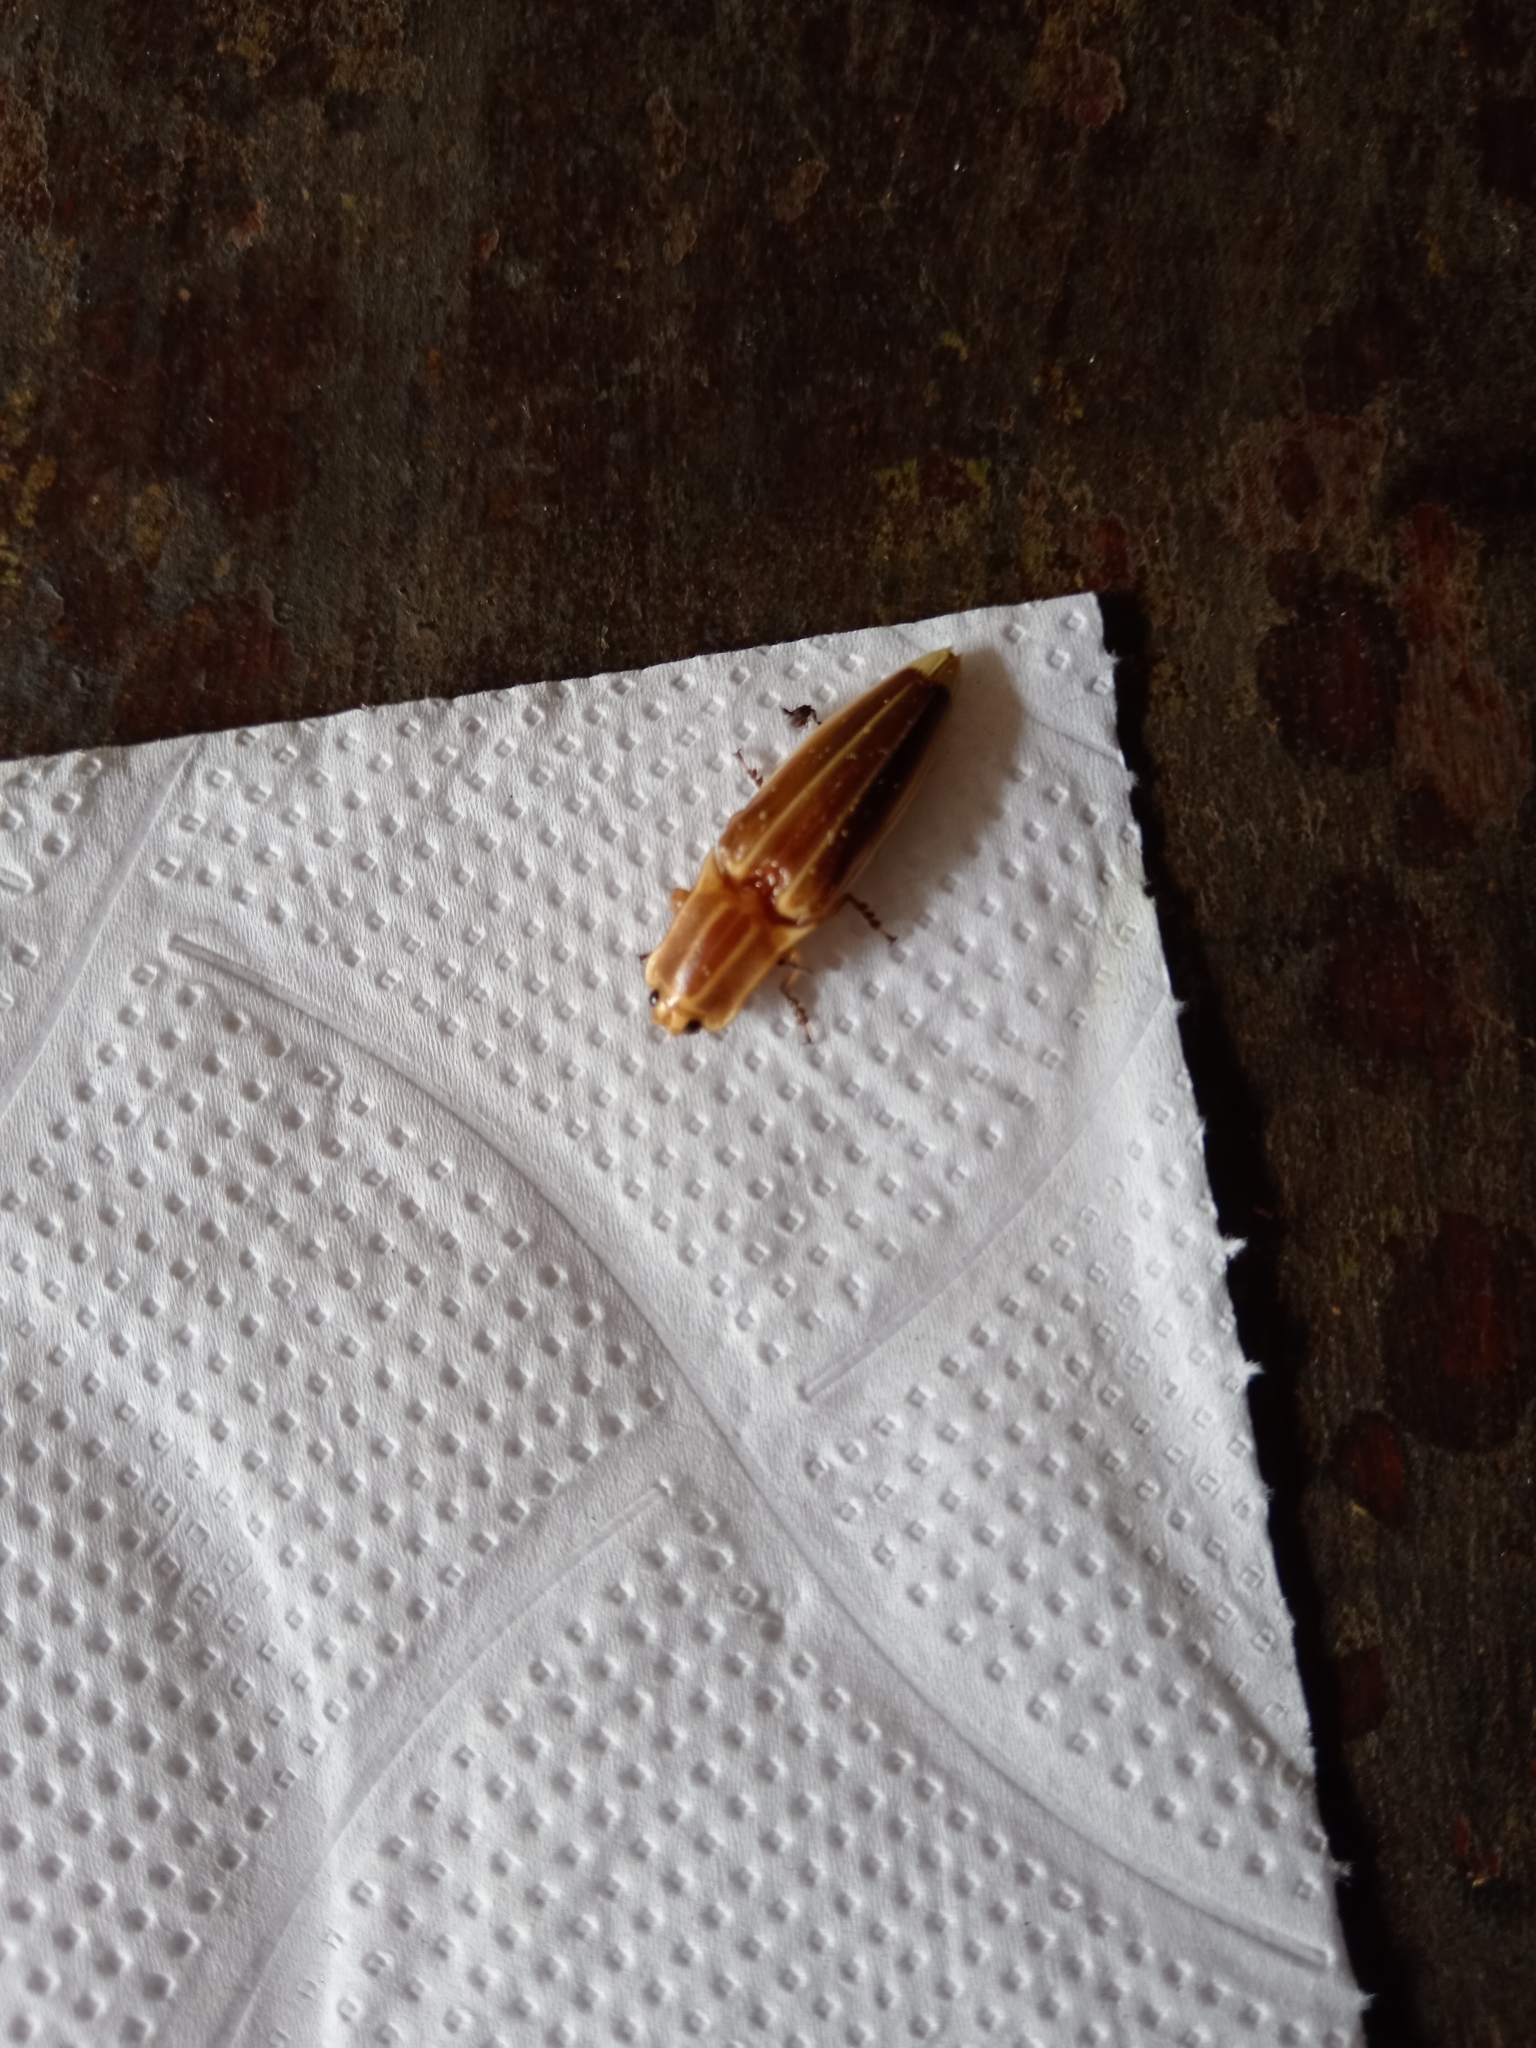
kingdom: Animalia
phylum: Arthropoda
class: Insecta
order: Coleoptera
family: Elateridae
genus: Semiotus
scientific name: Semiotus ligneus
